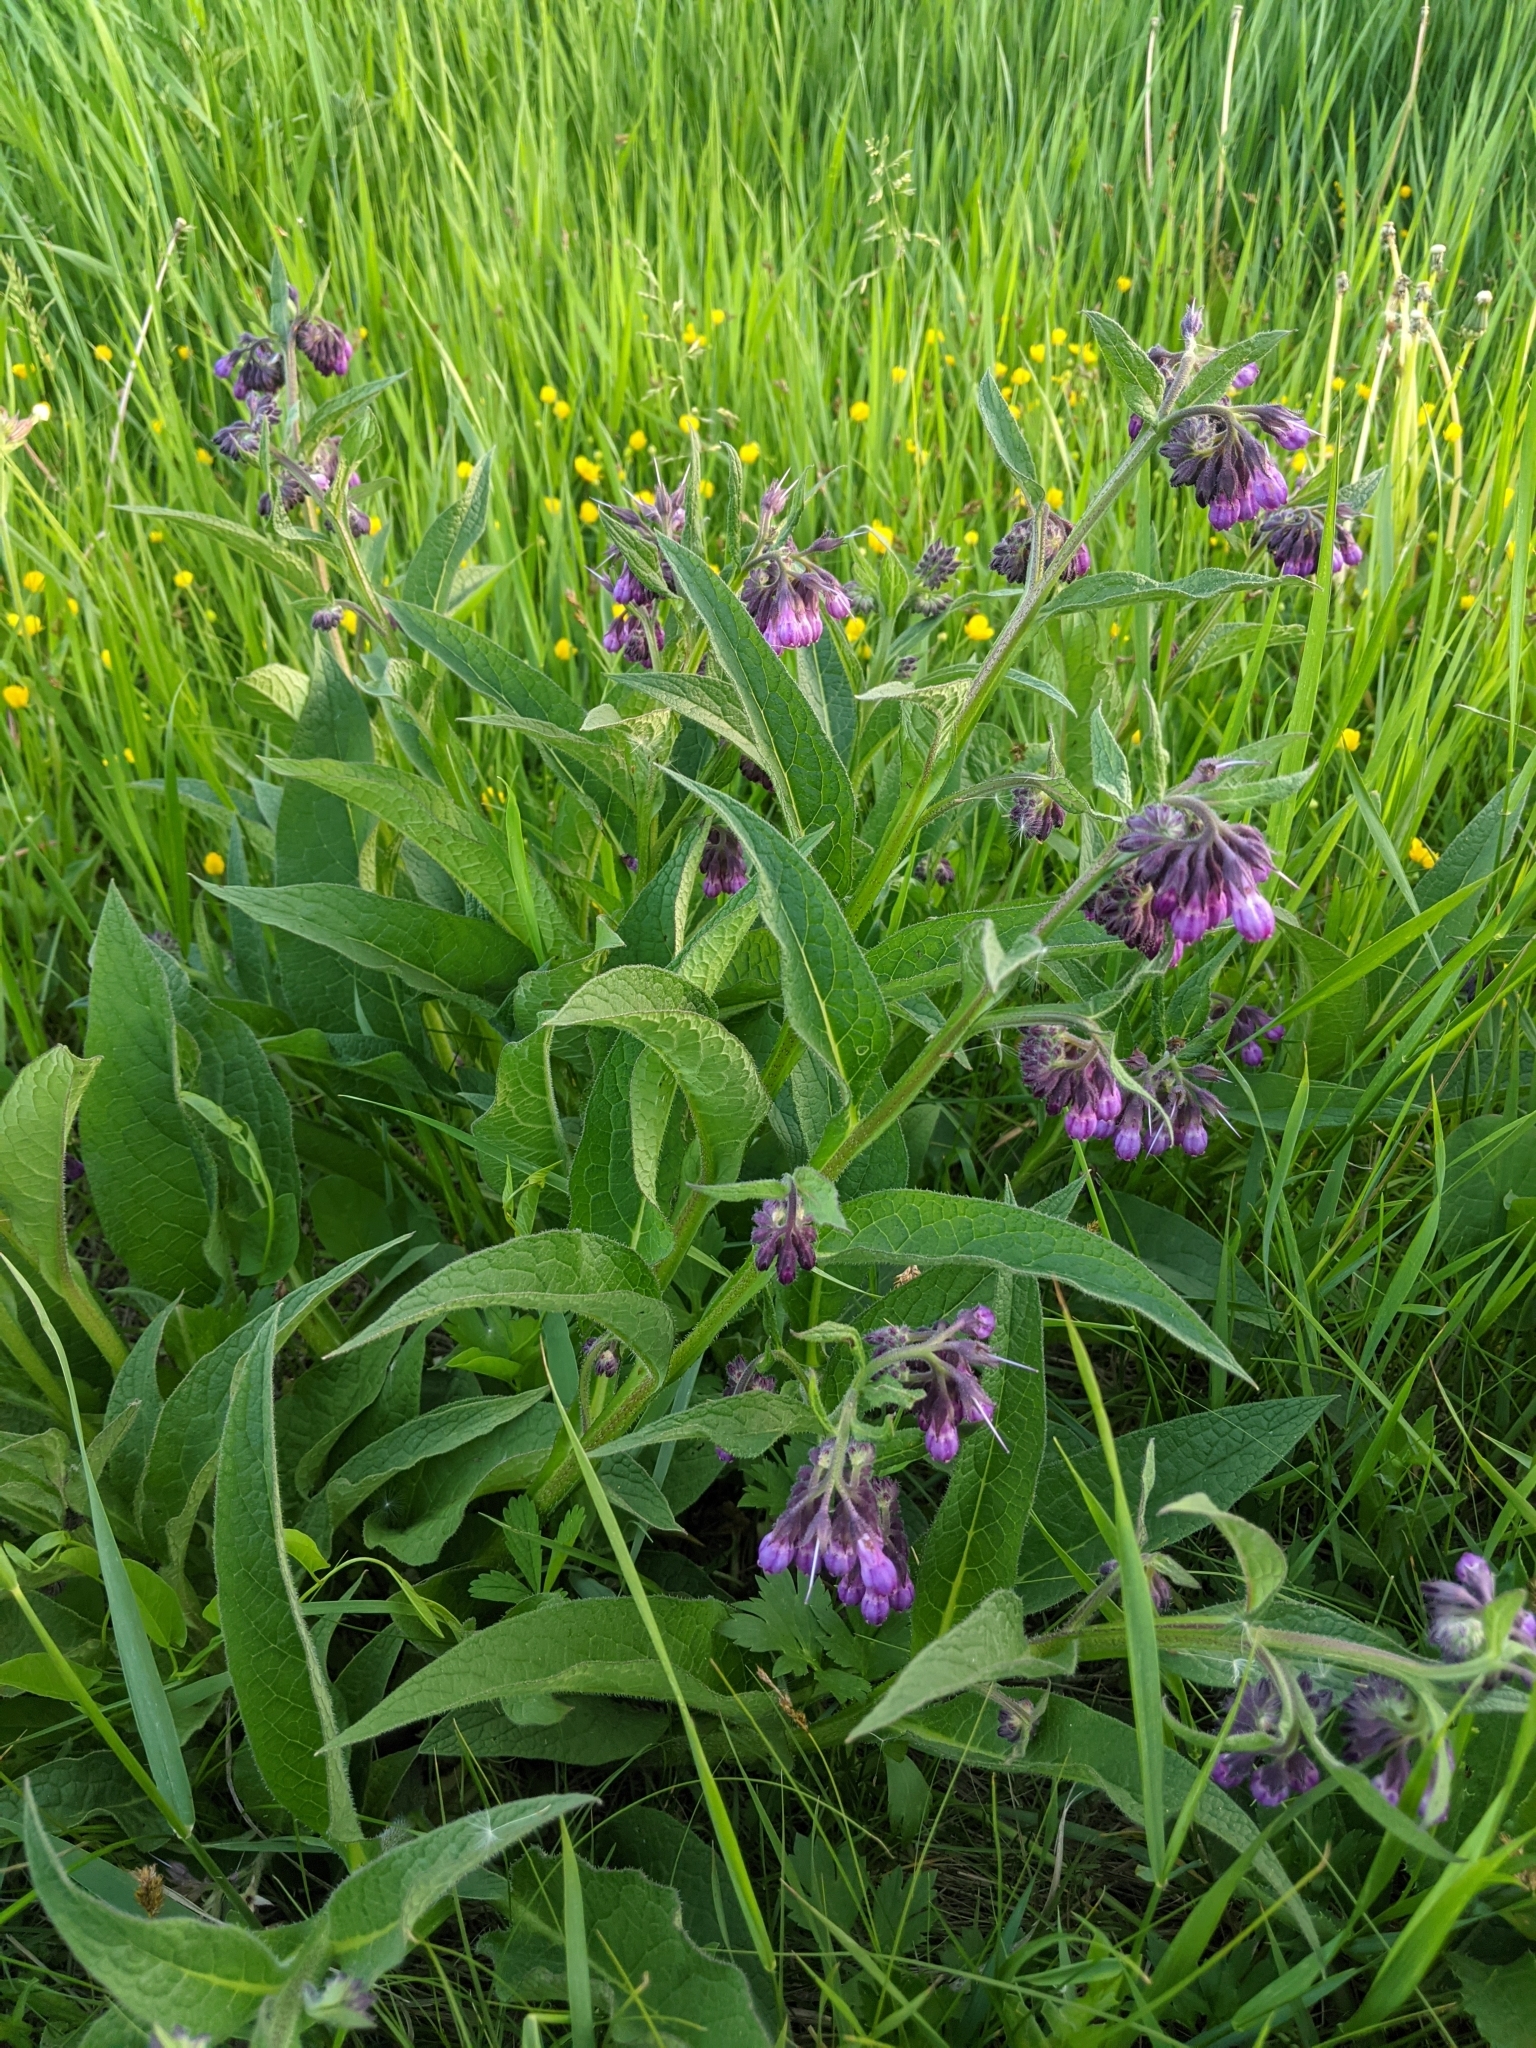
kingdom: Plantae
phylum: Tracheophyta
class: Magnoliopsida
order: Boraginales
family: Boraginaceae
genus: Symphytum
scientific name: Symphytum officinale
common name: Common comfrey
